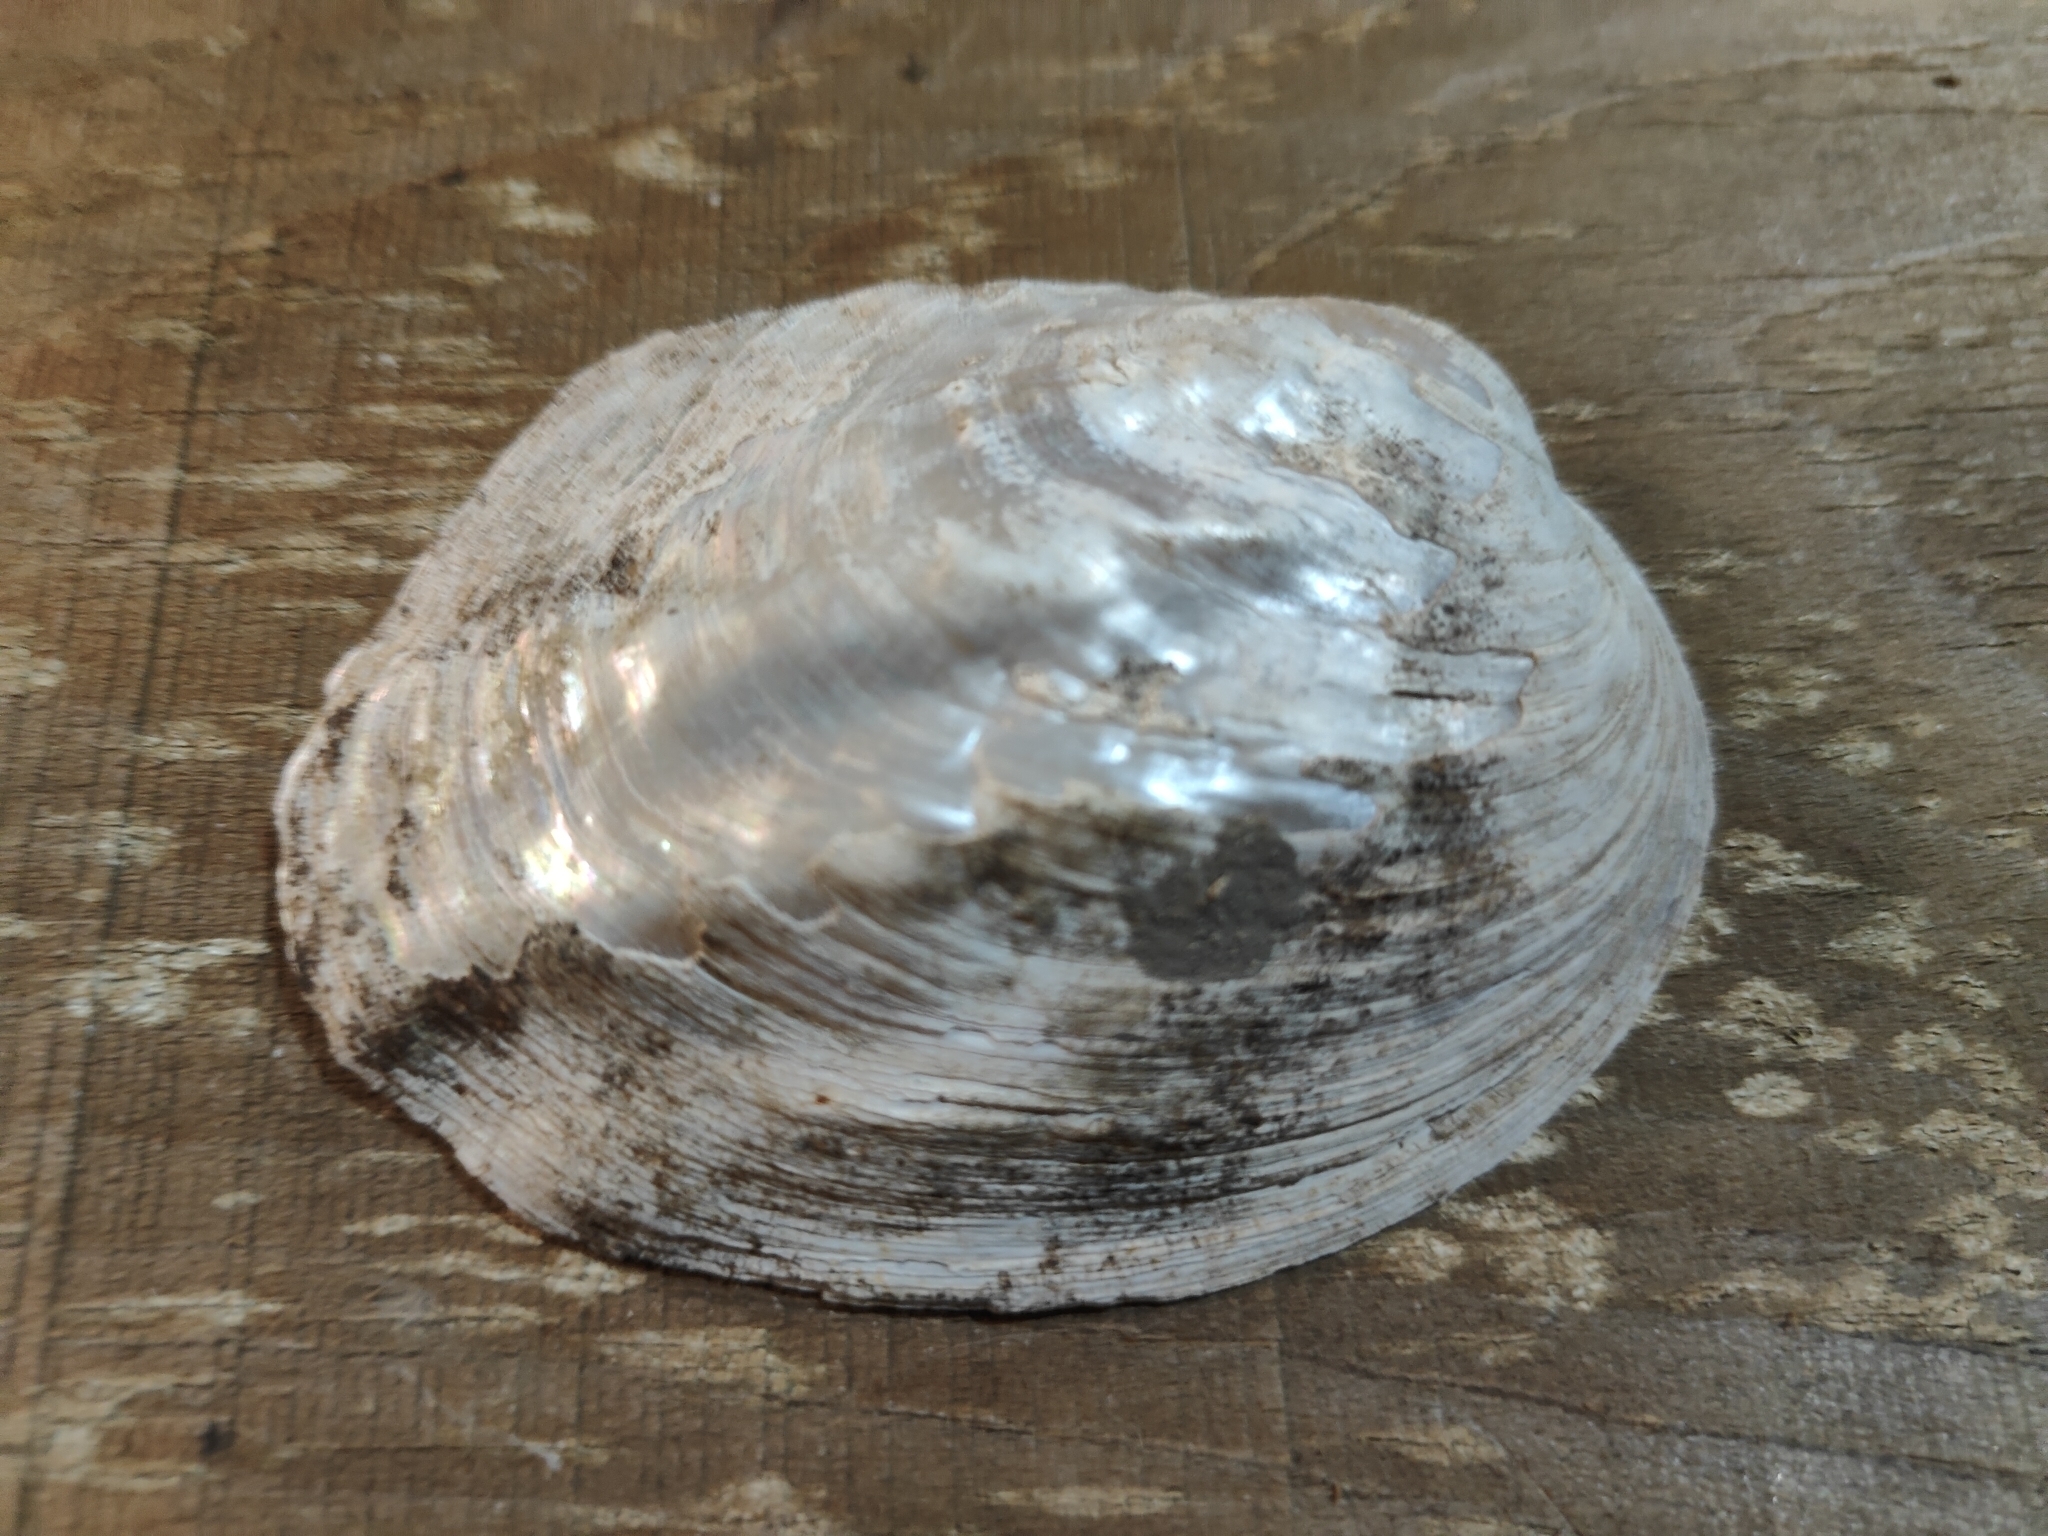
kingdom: Animalia
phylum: Mollusca
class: Bivalvia
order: Unionida
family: Unionidae
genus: Amblema
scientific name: Amblema plicata
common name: Threeridge
